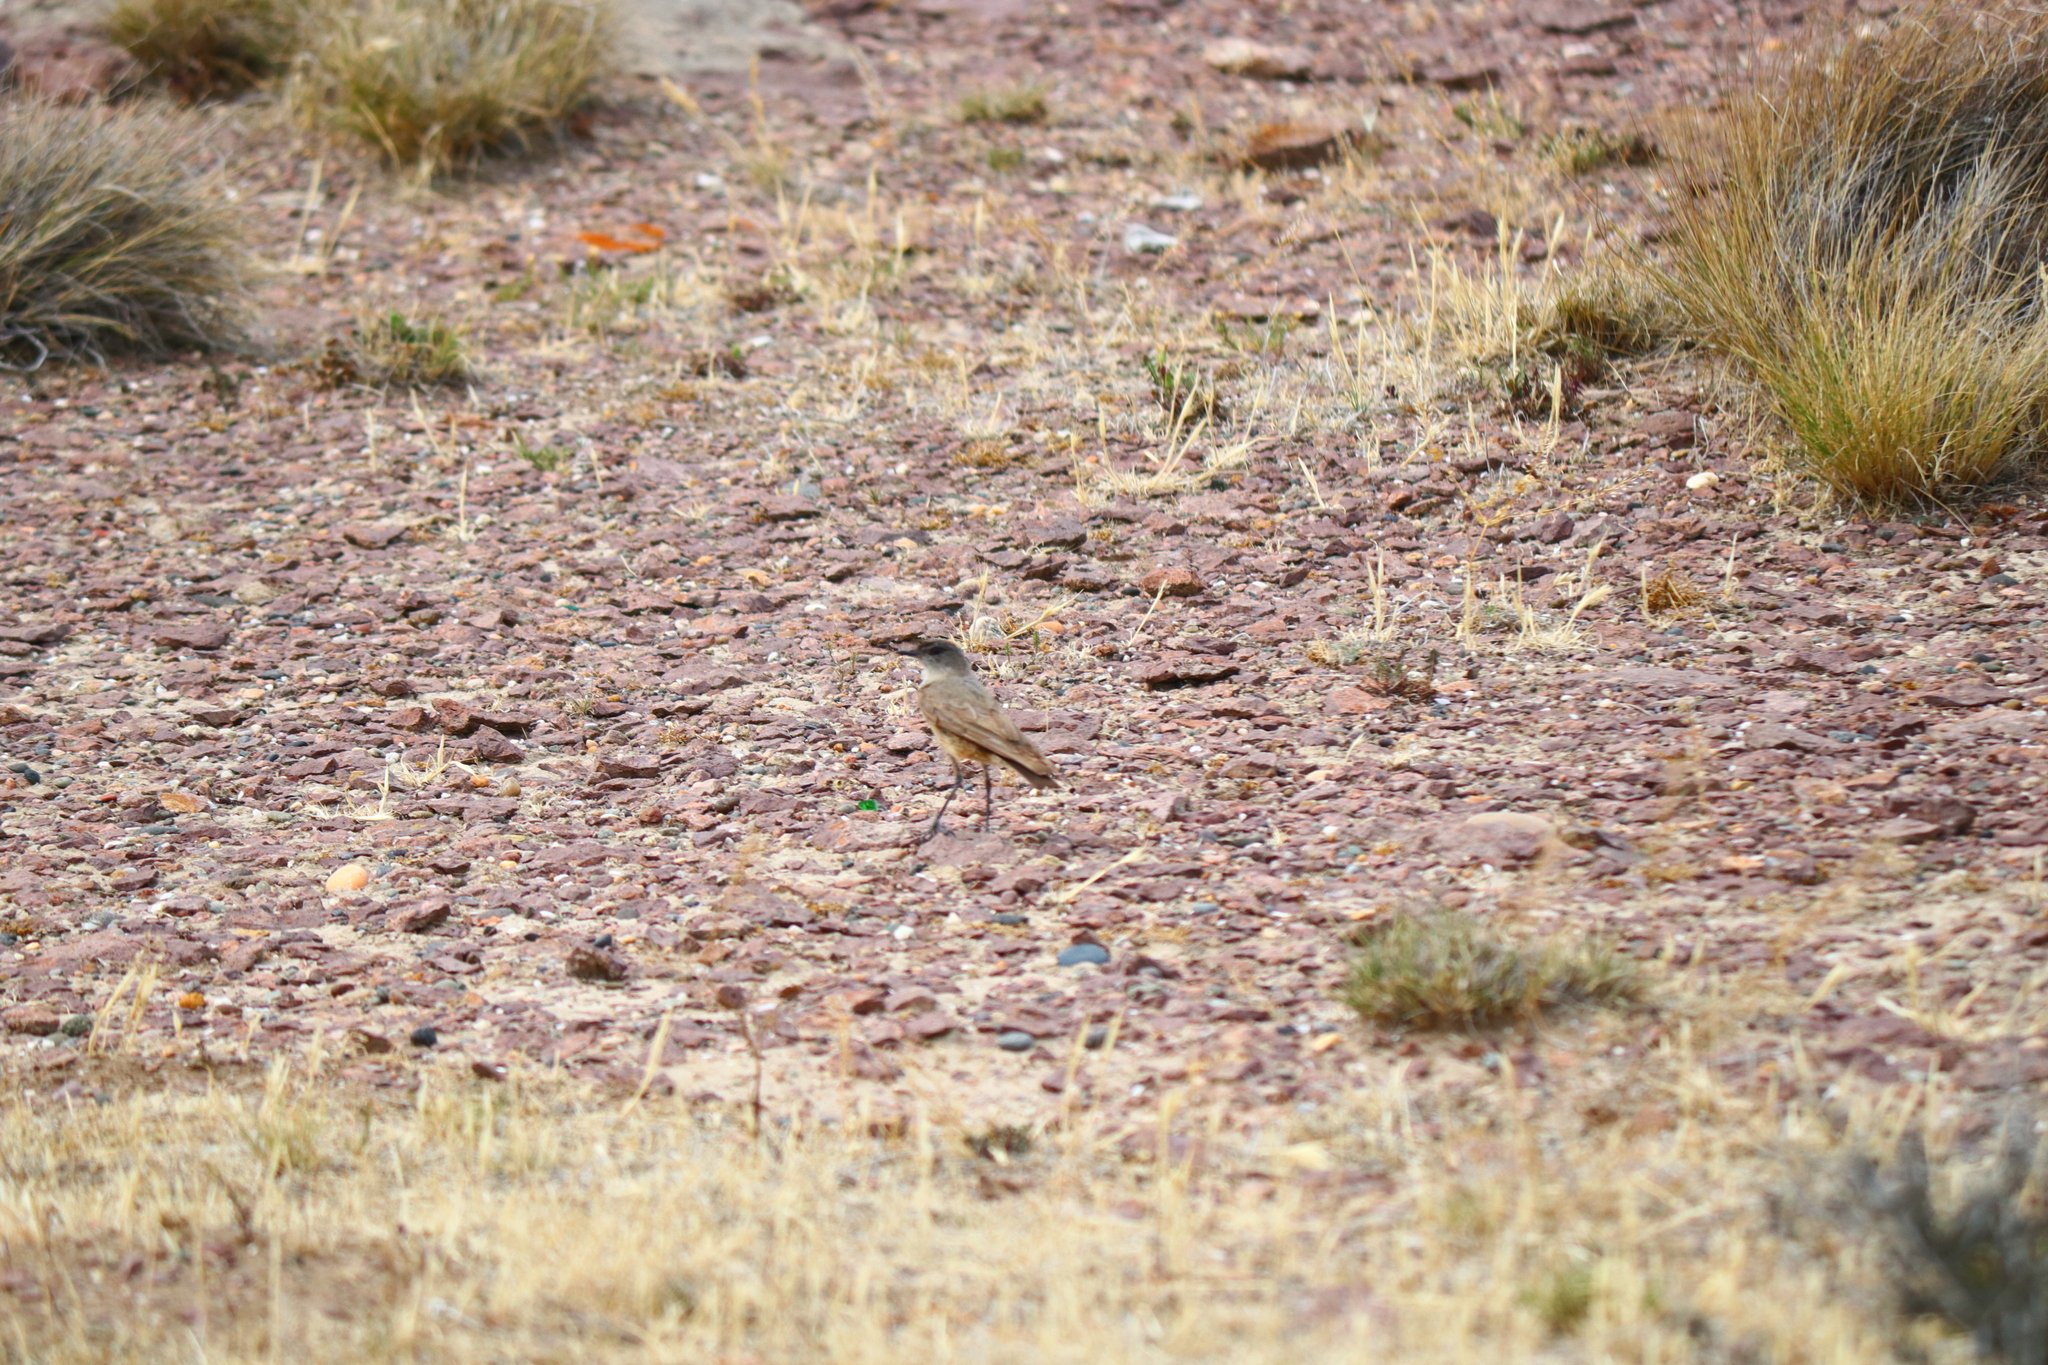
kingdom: Animalia
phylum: Chordata
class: Aves
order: Passeriformes
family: Tyrannidae
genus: Muscisaxicola
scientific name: Muscisaxicola capistratus
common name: Cinnamon-bellied ground tyrant
